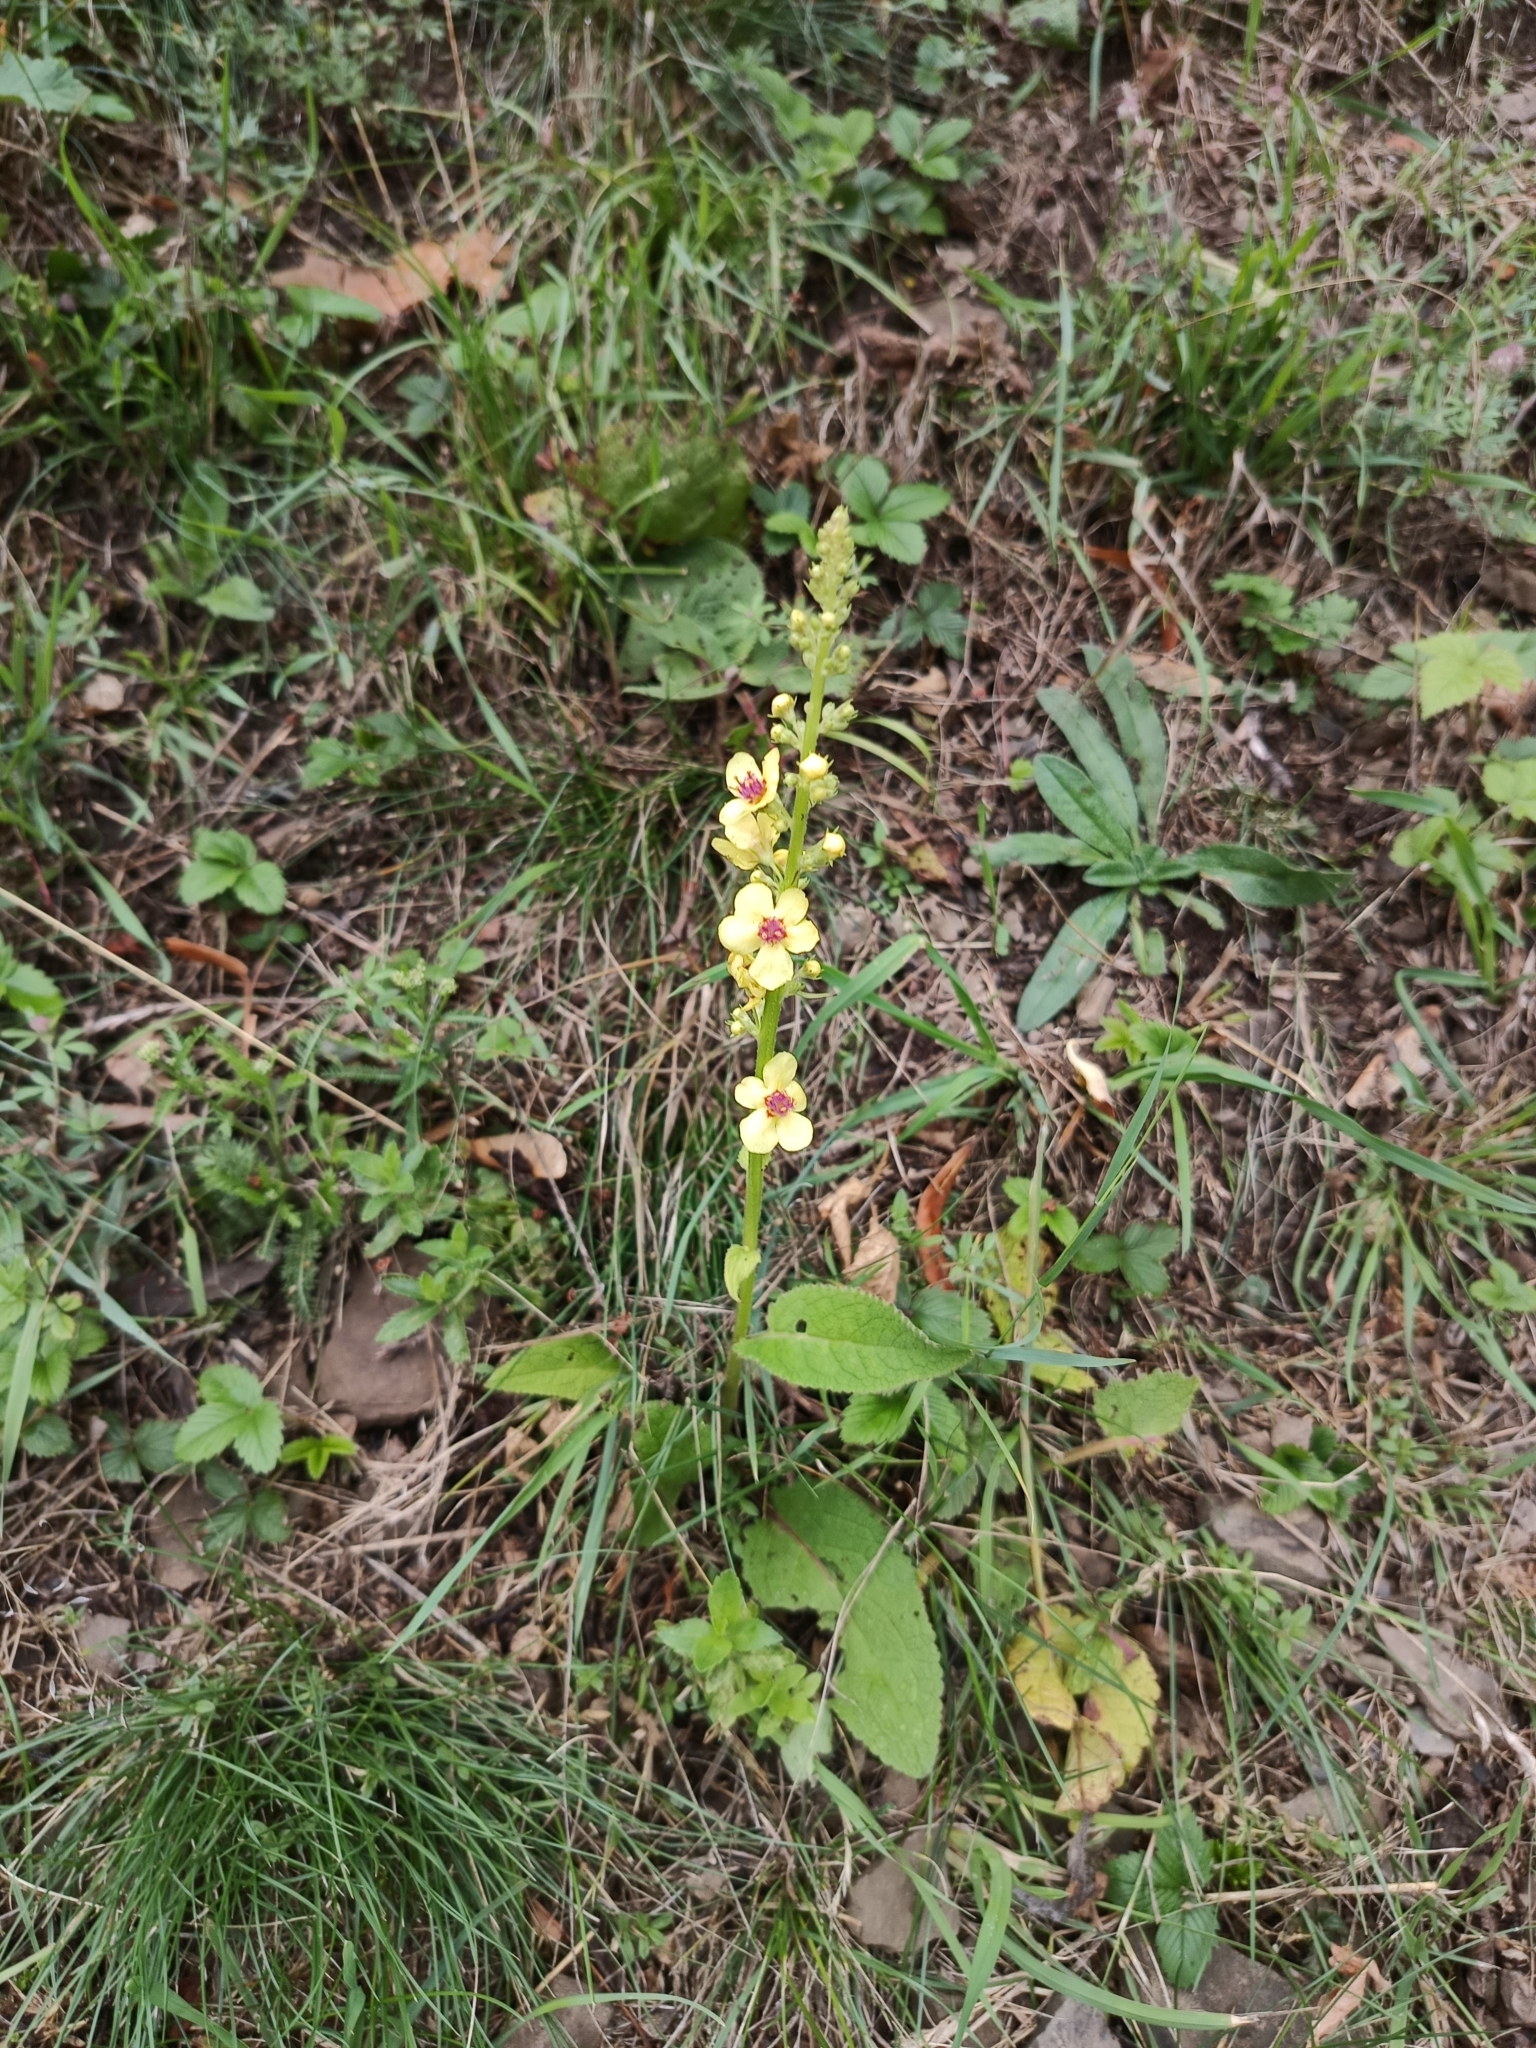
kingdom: Plantae
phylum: Tracheophyta
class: Magnoliopsida
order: Lamiales
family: Scrophulariaceae
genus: Verbascum
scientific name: Verbascum nigrum
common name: Dark mullein
